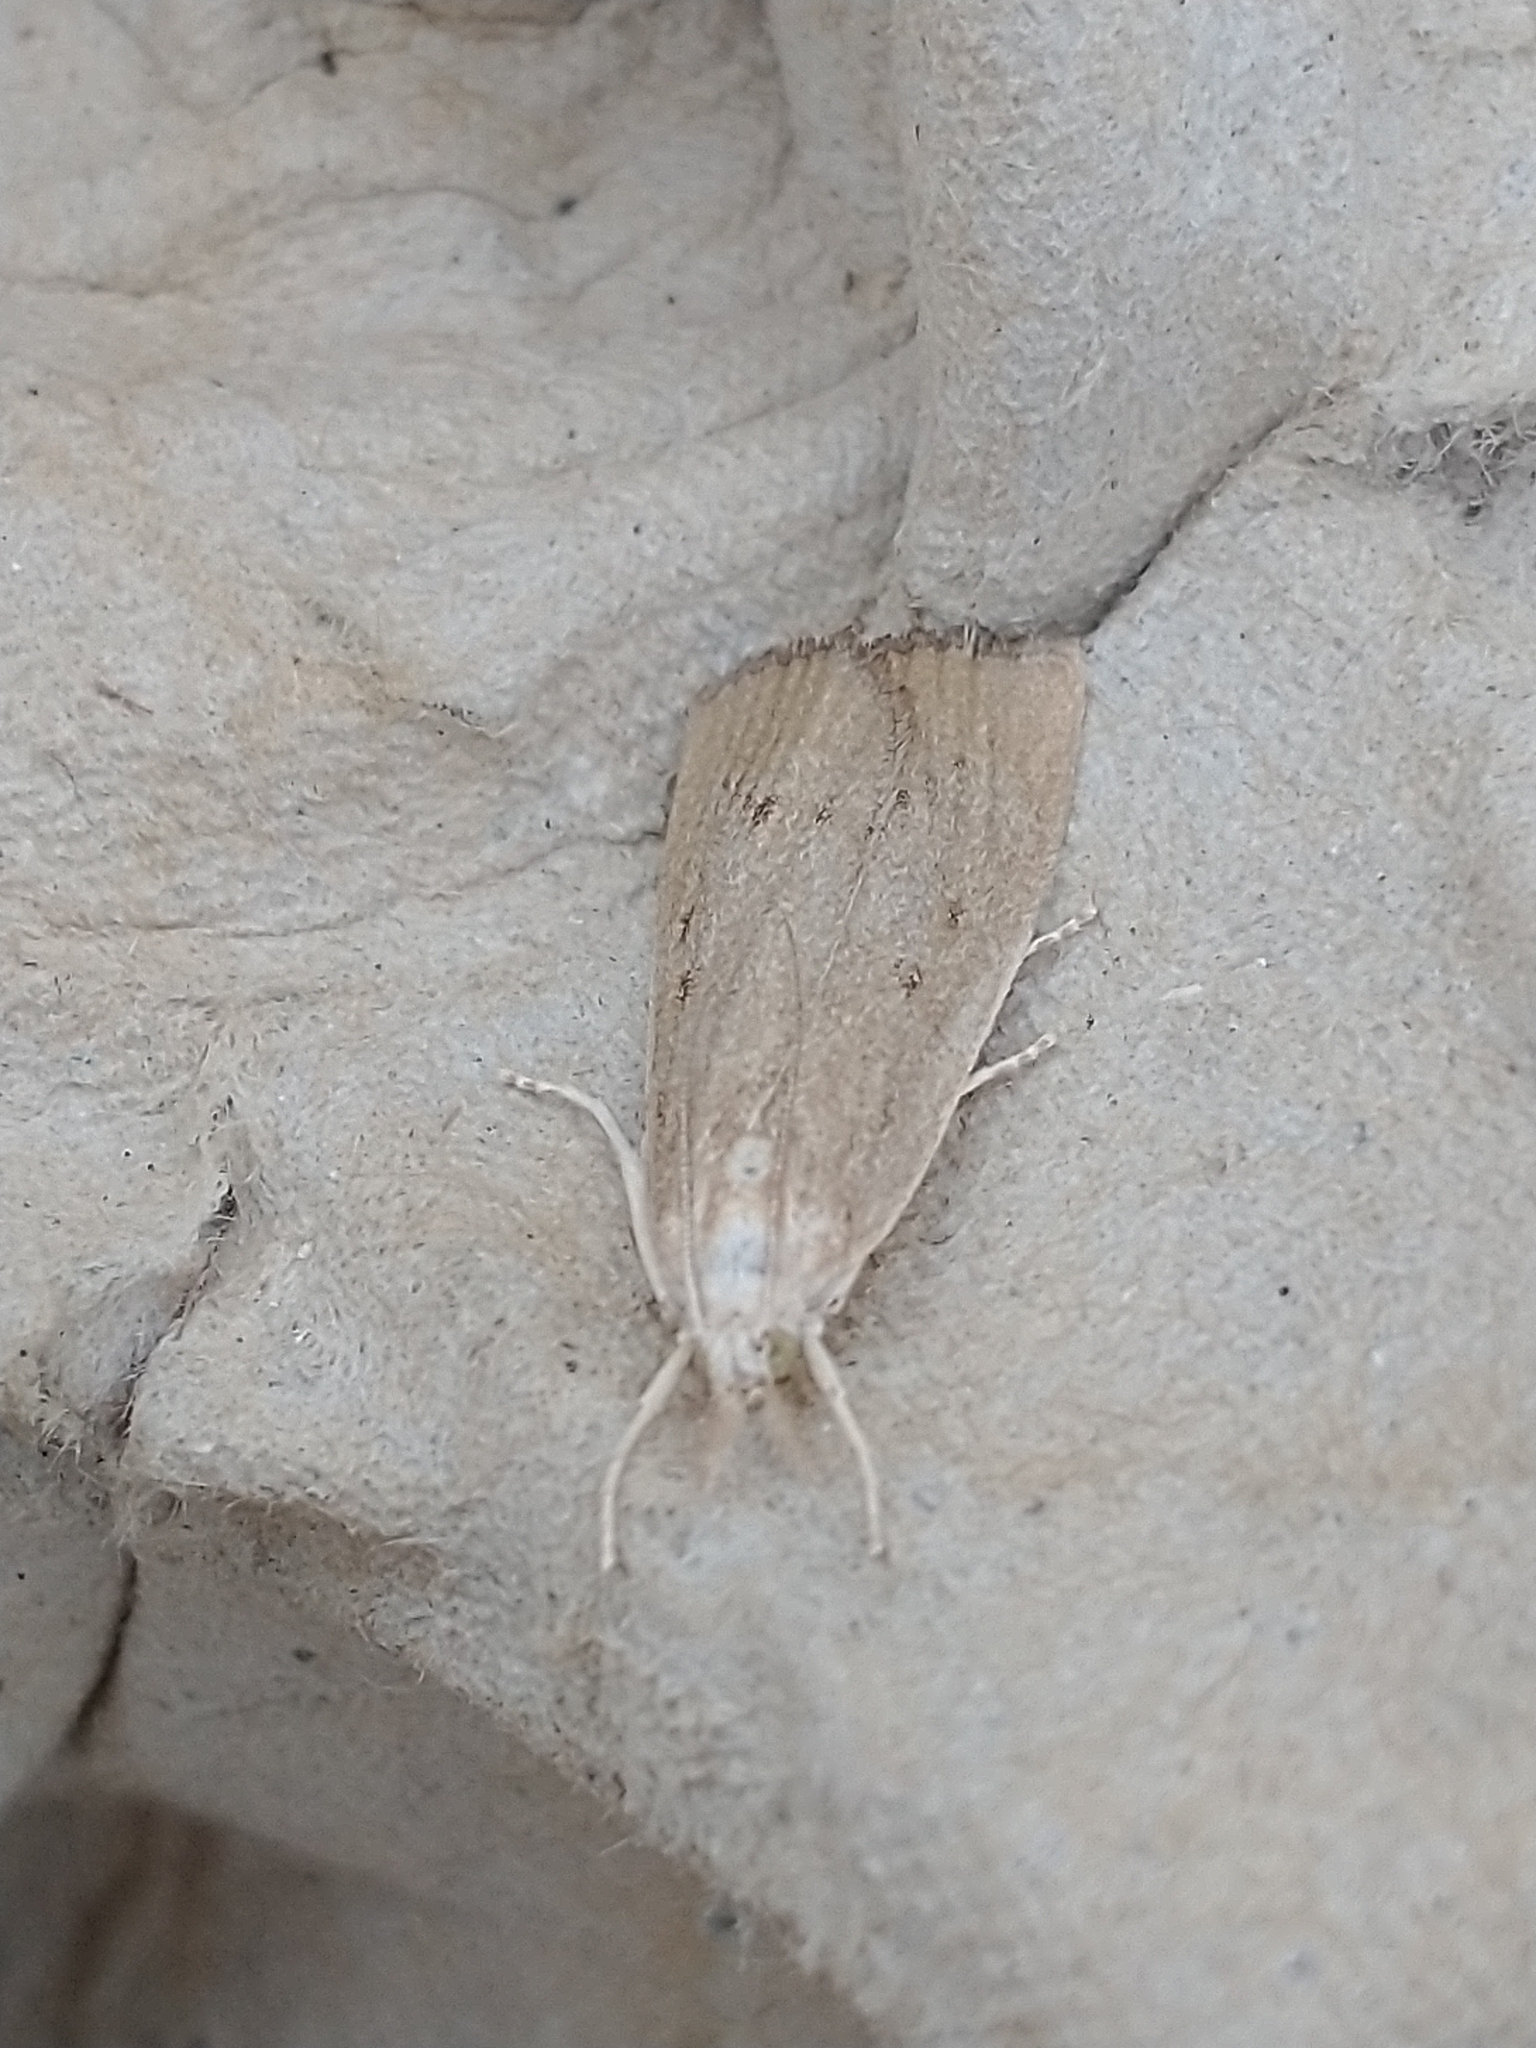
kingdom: Animalia
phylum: Arthropoda
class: Insecta
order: Lepidoptera
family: Crambidae
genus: Calamotropha
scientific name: Calamotropha paludella
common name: Bulrush veneer
